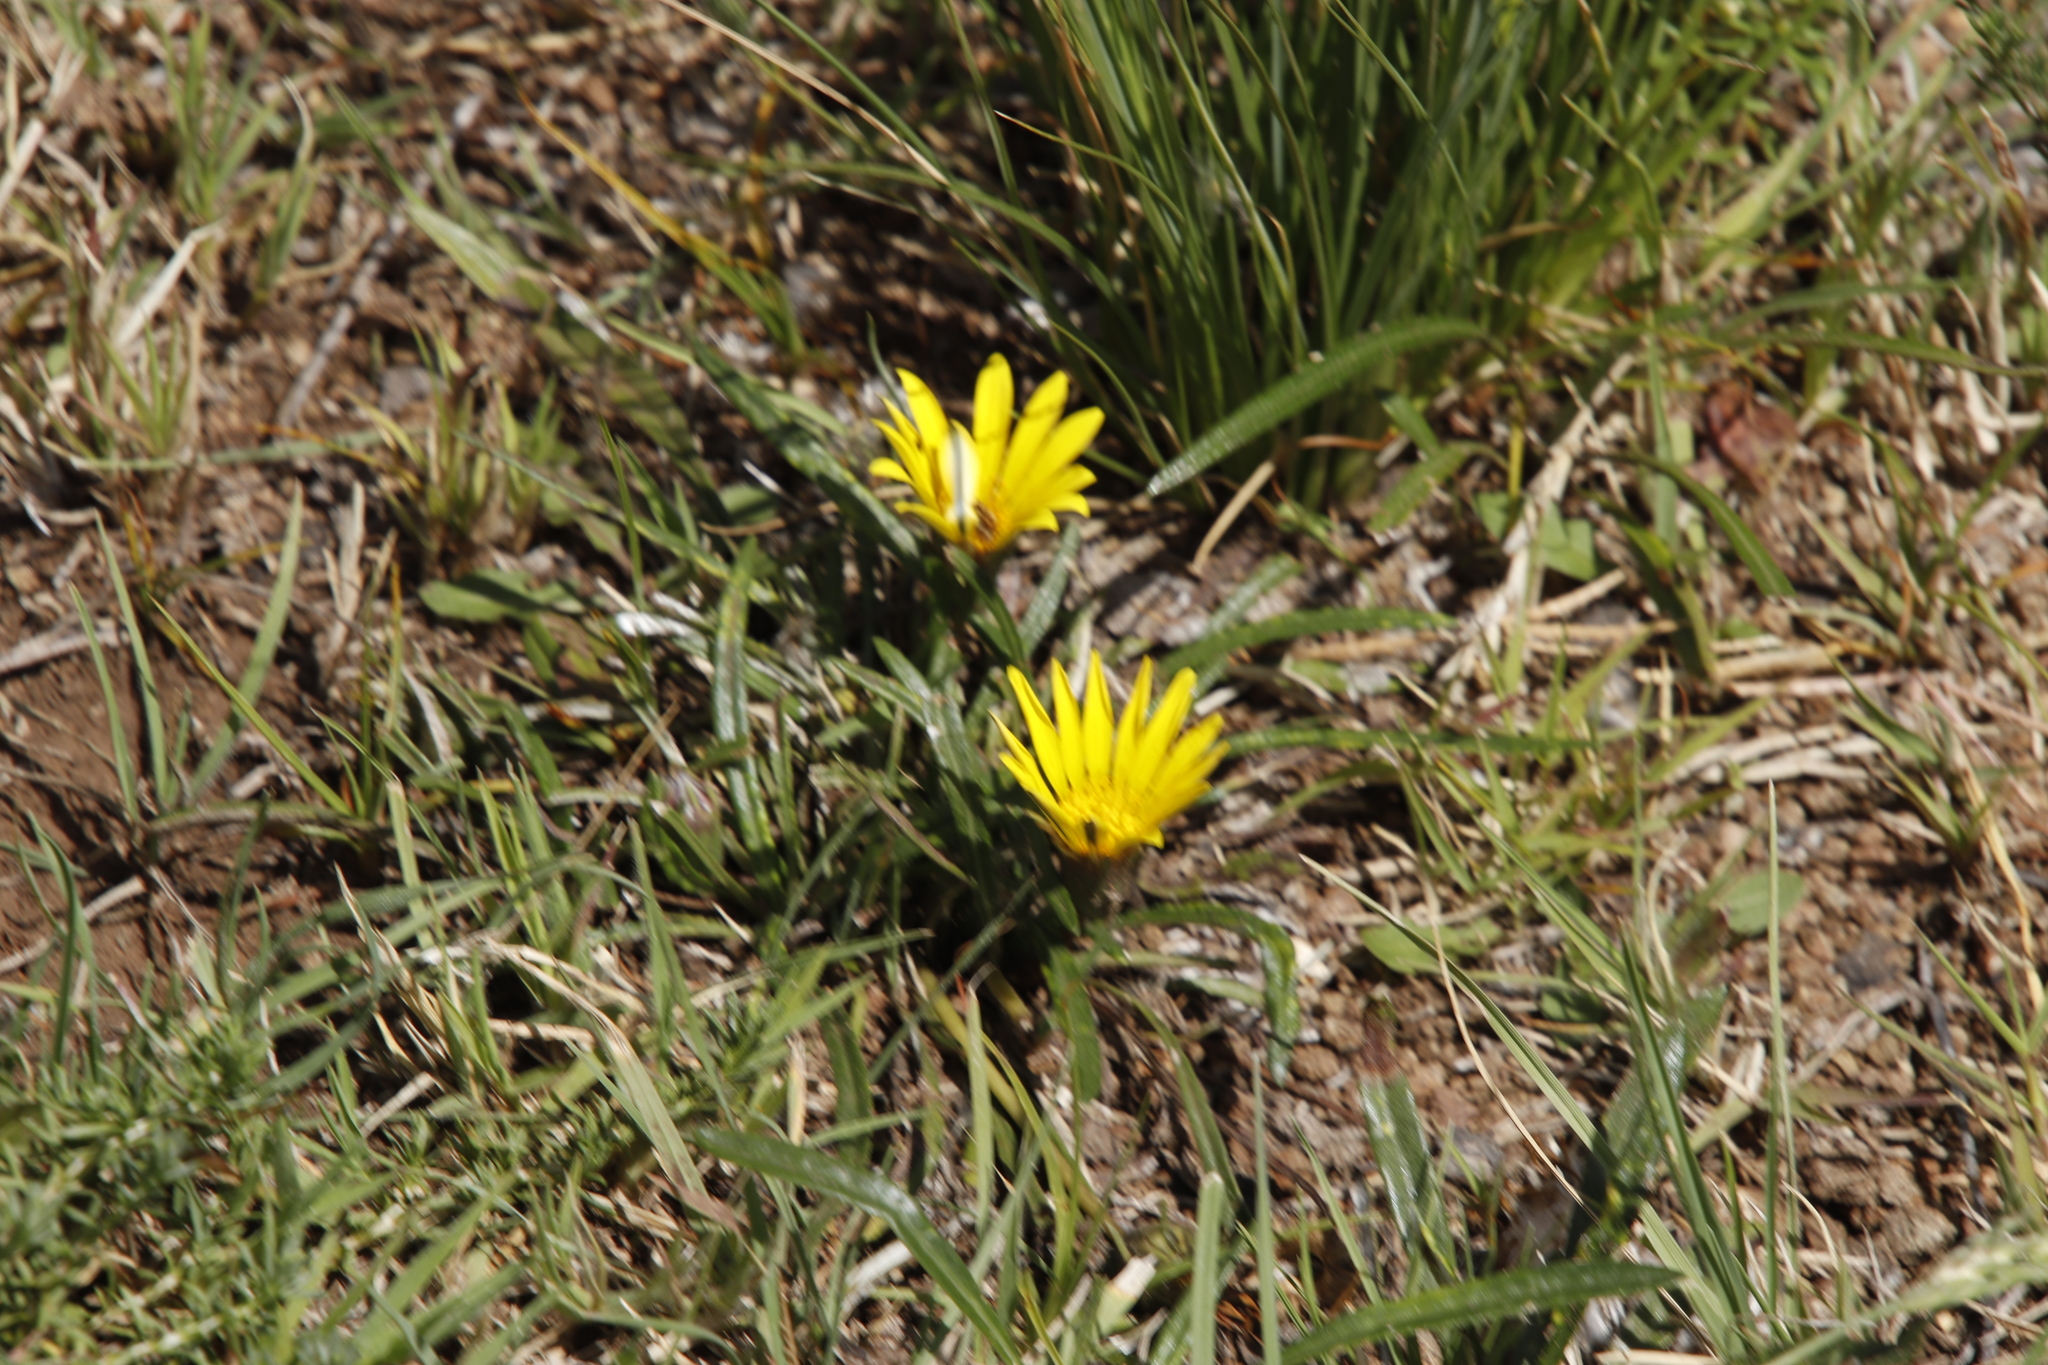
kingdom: Plantae
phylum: Tracheophyta
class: Magnoliopsida
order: Asterales
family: Asteraceae
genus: Gazania
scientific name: Gazania krebsiana
